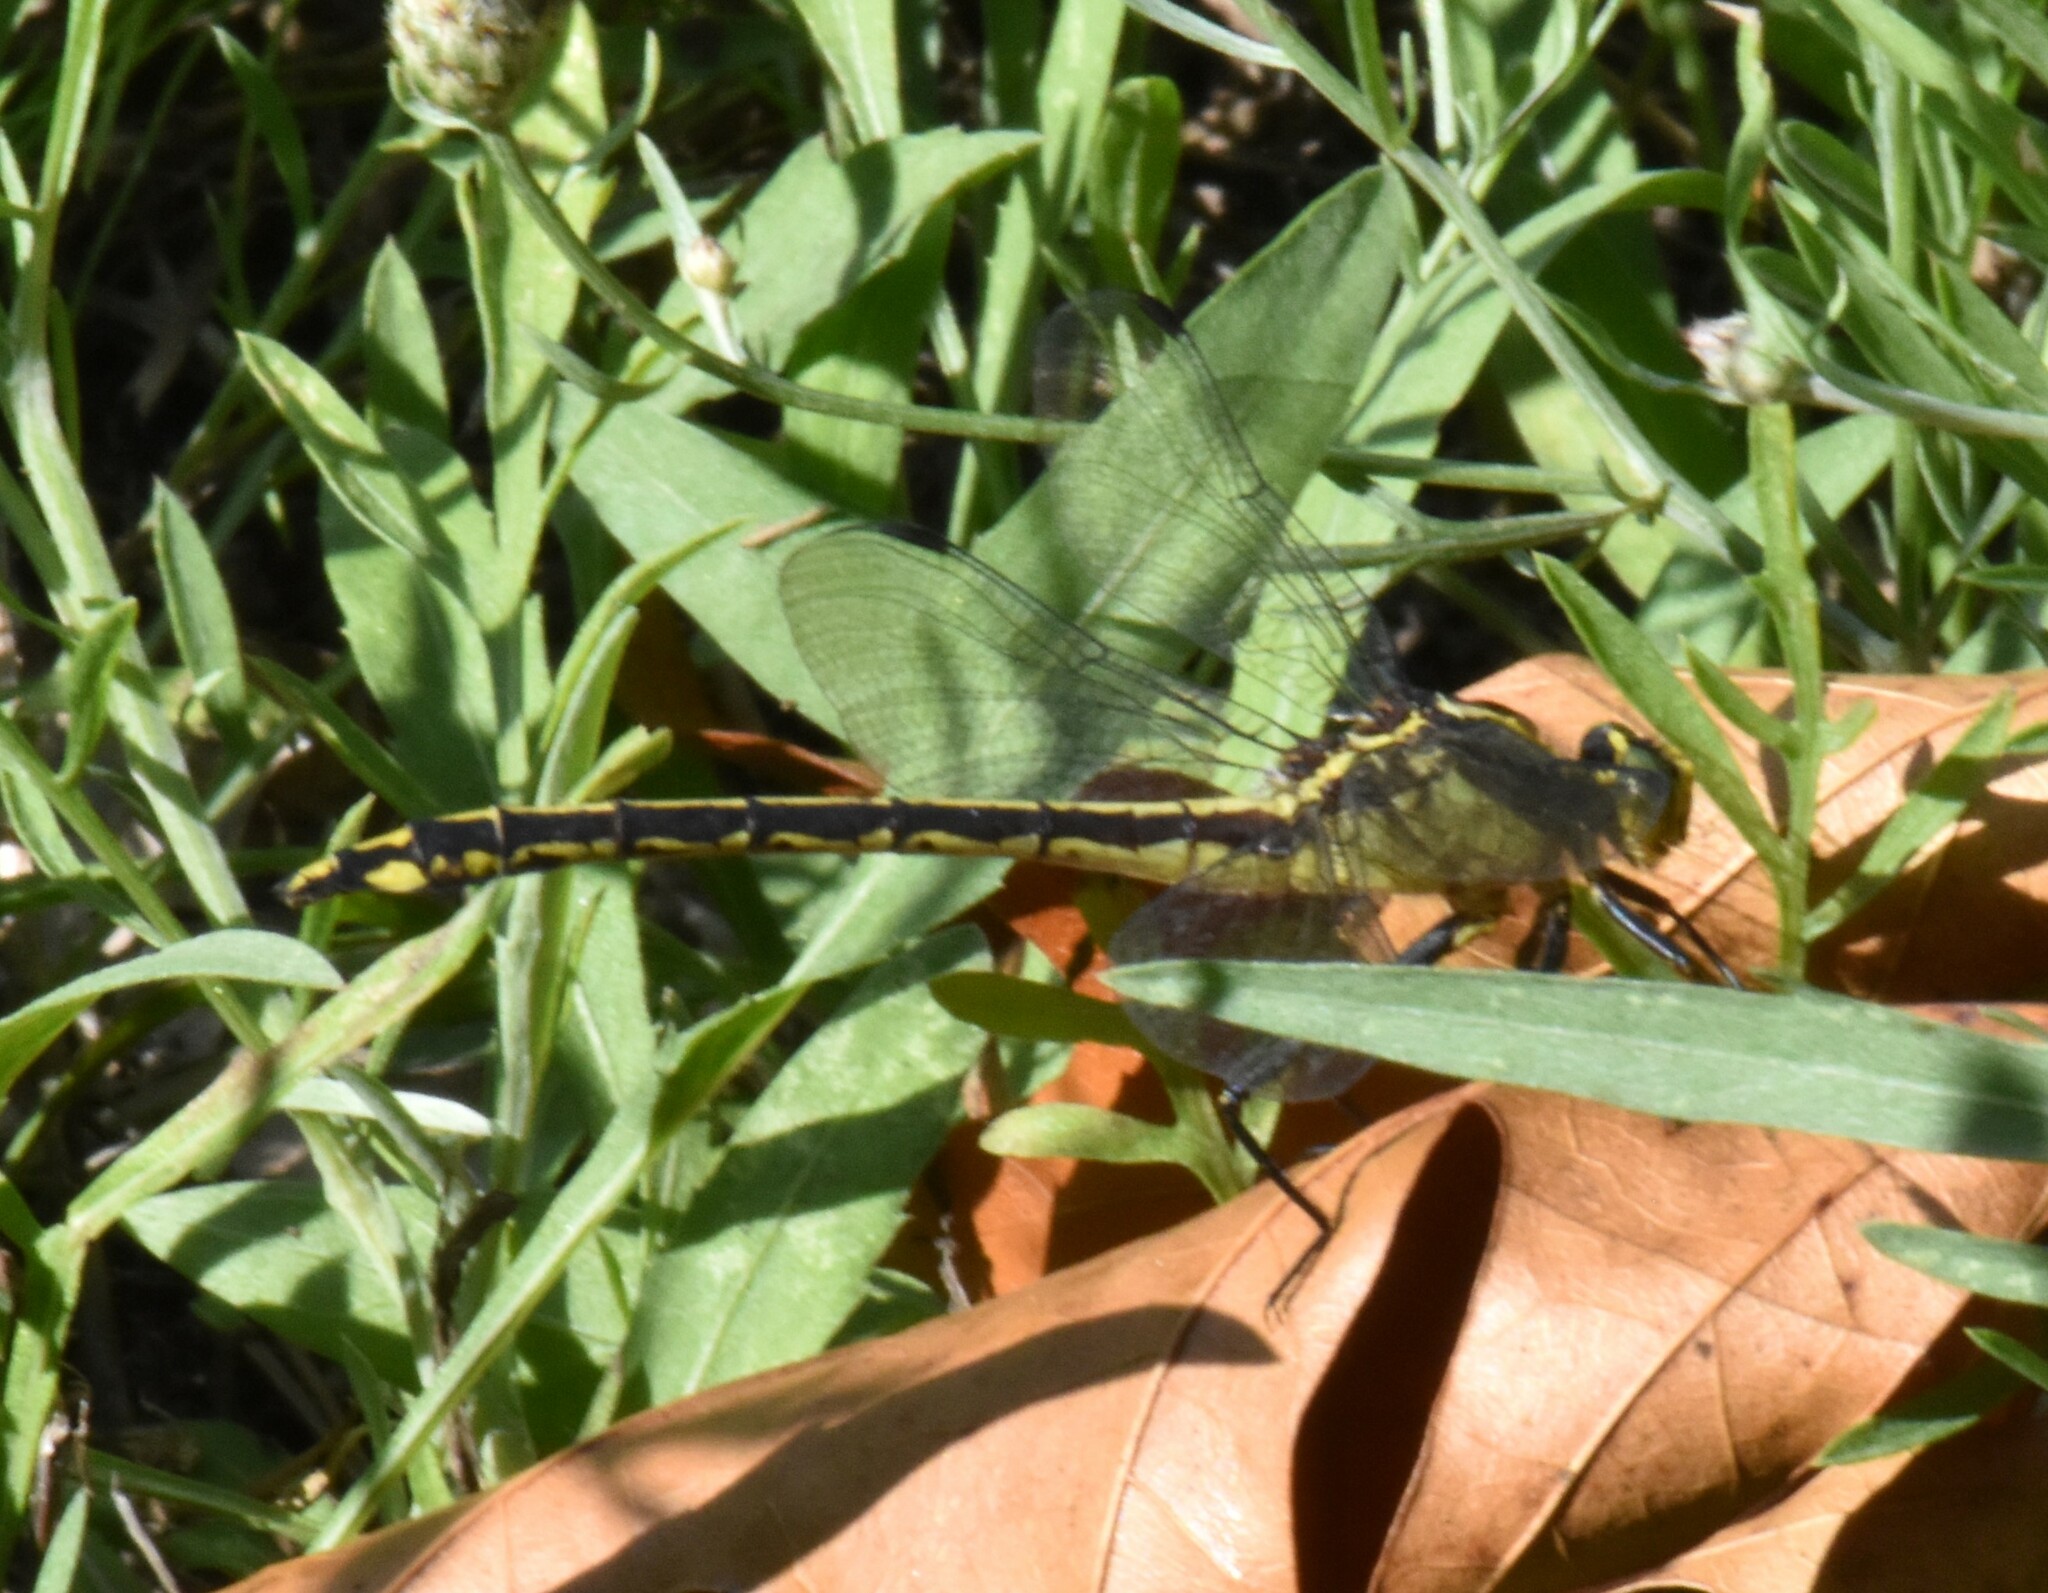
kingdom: Animalia
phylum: Arthropoda
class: Insecta
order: Odonata
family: Gomphidae
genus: Dromogomphus
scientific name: Dromogomphus spinosus
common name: Black-shouldered spinyleg
